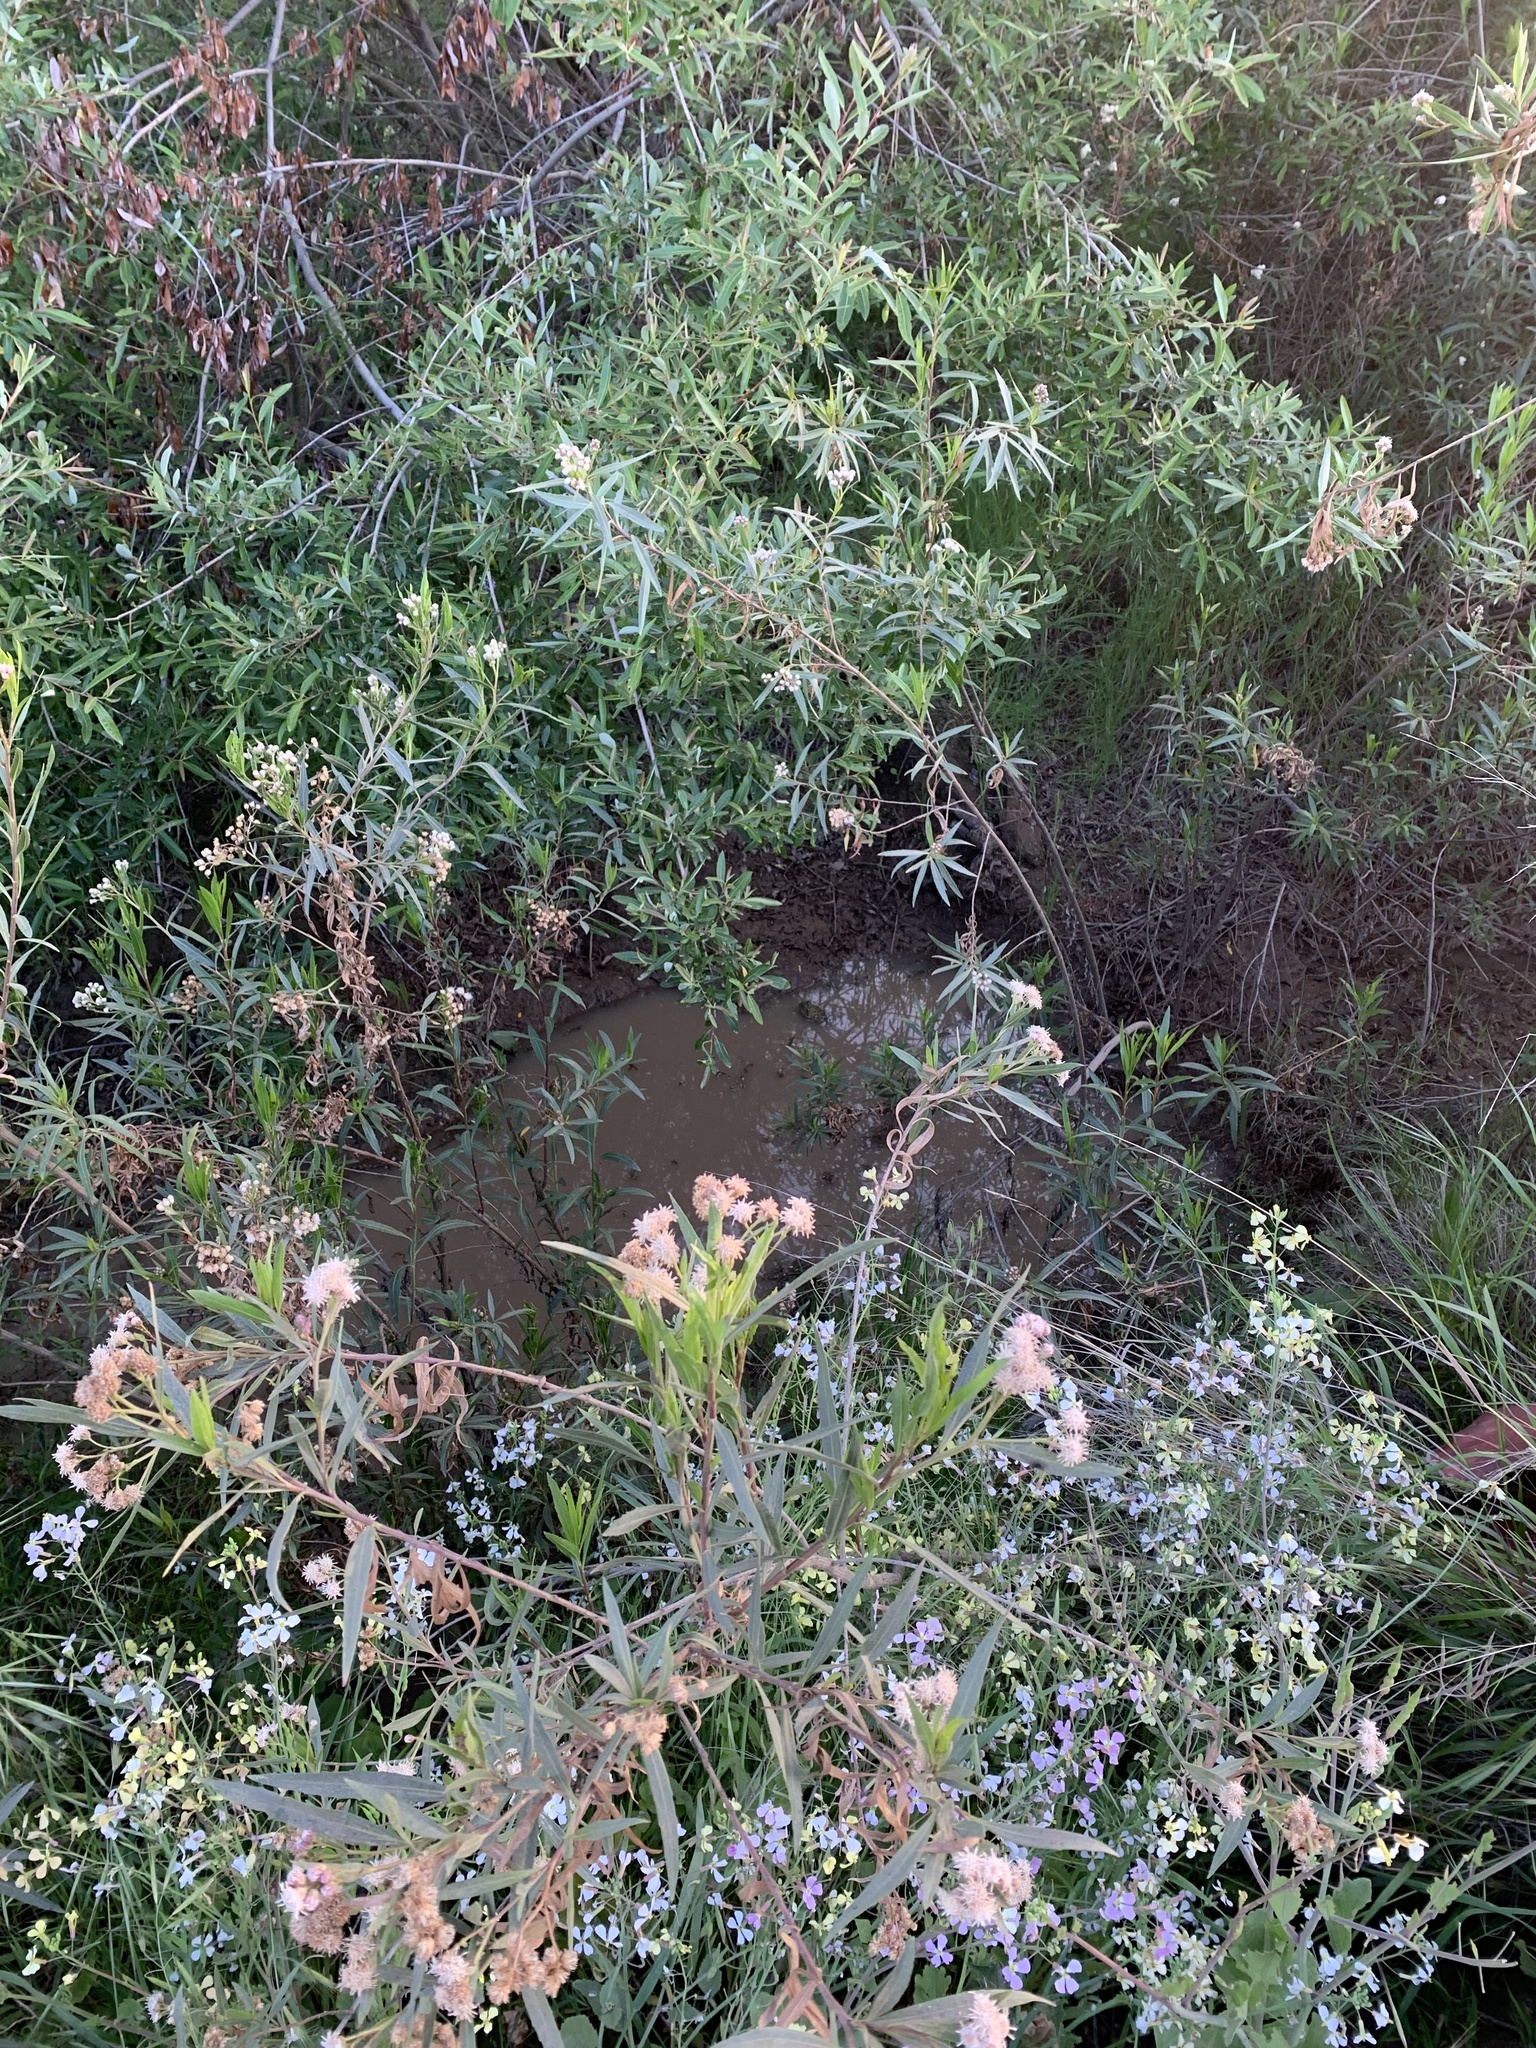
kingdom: Animalia
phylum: Chordata
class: Amphibia
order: Anura
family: Ranidae
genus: Lithobates
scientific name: Lithobates catesbeianus
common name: American bullfrog
